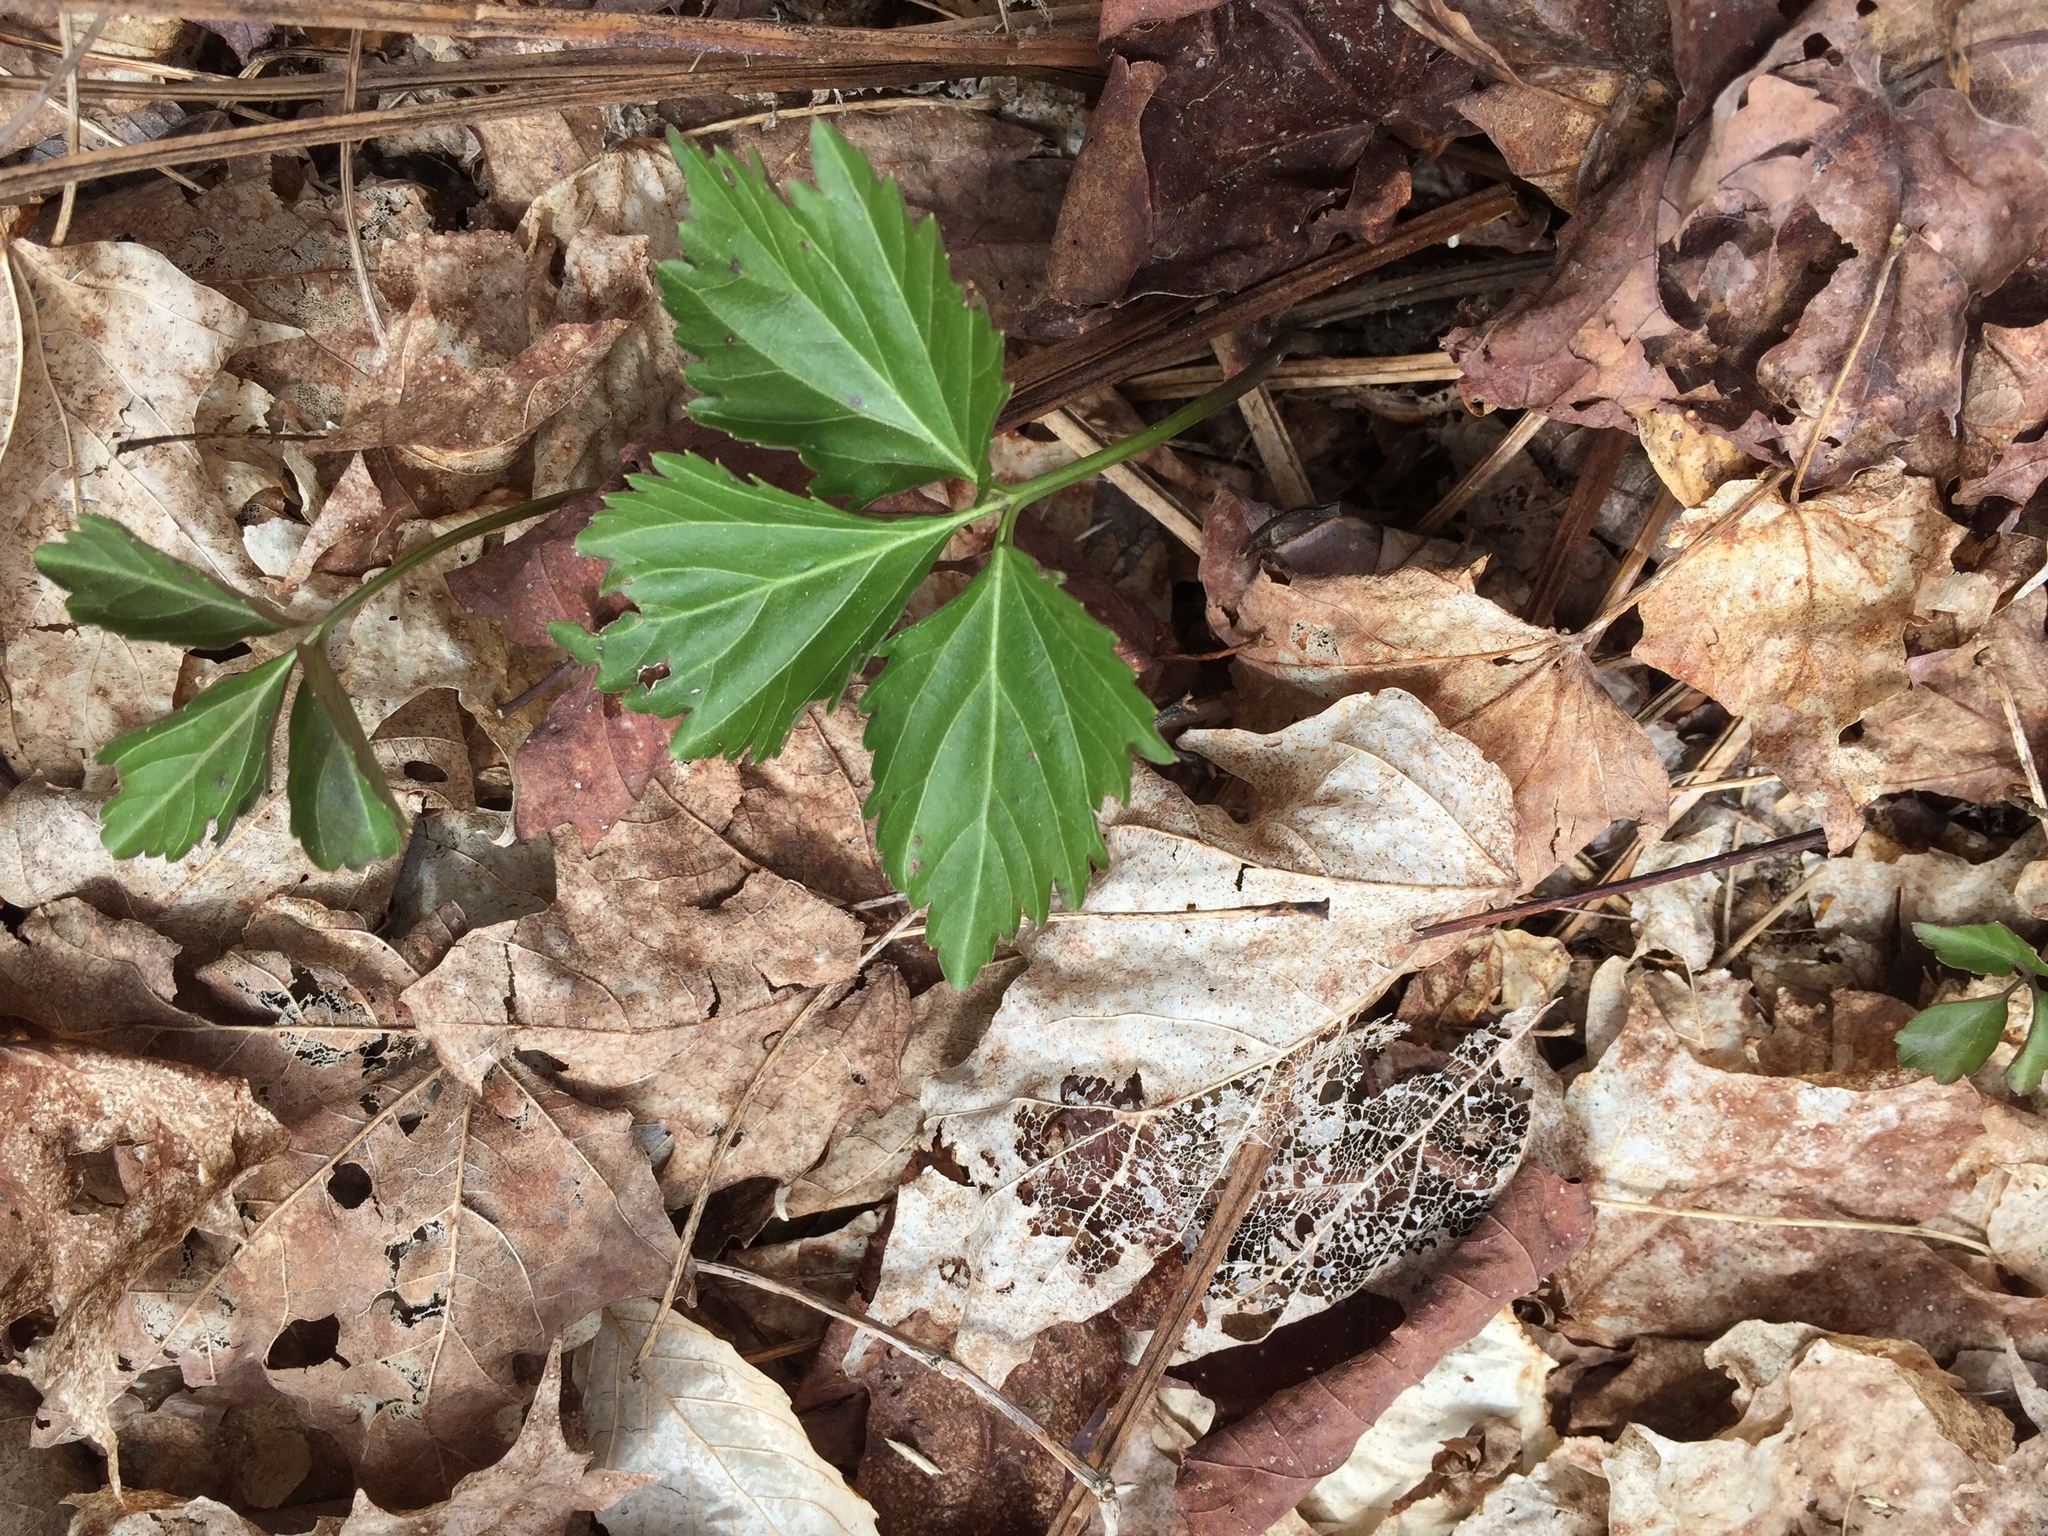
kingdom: Plantae
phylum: Tracheophyta
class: Magnoliopsida
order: Brassicales
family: Brassicaceae
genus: Cardamine
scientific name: Cardamine diphylla
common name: Broad-leaved toothwort
